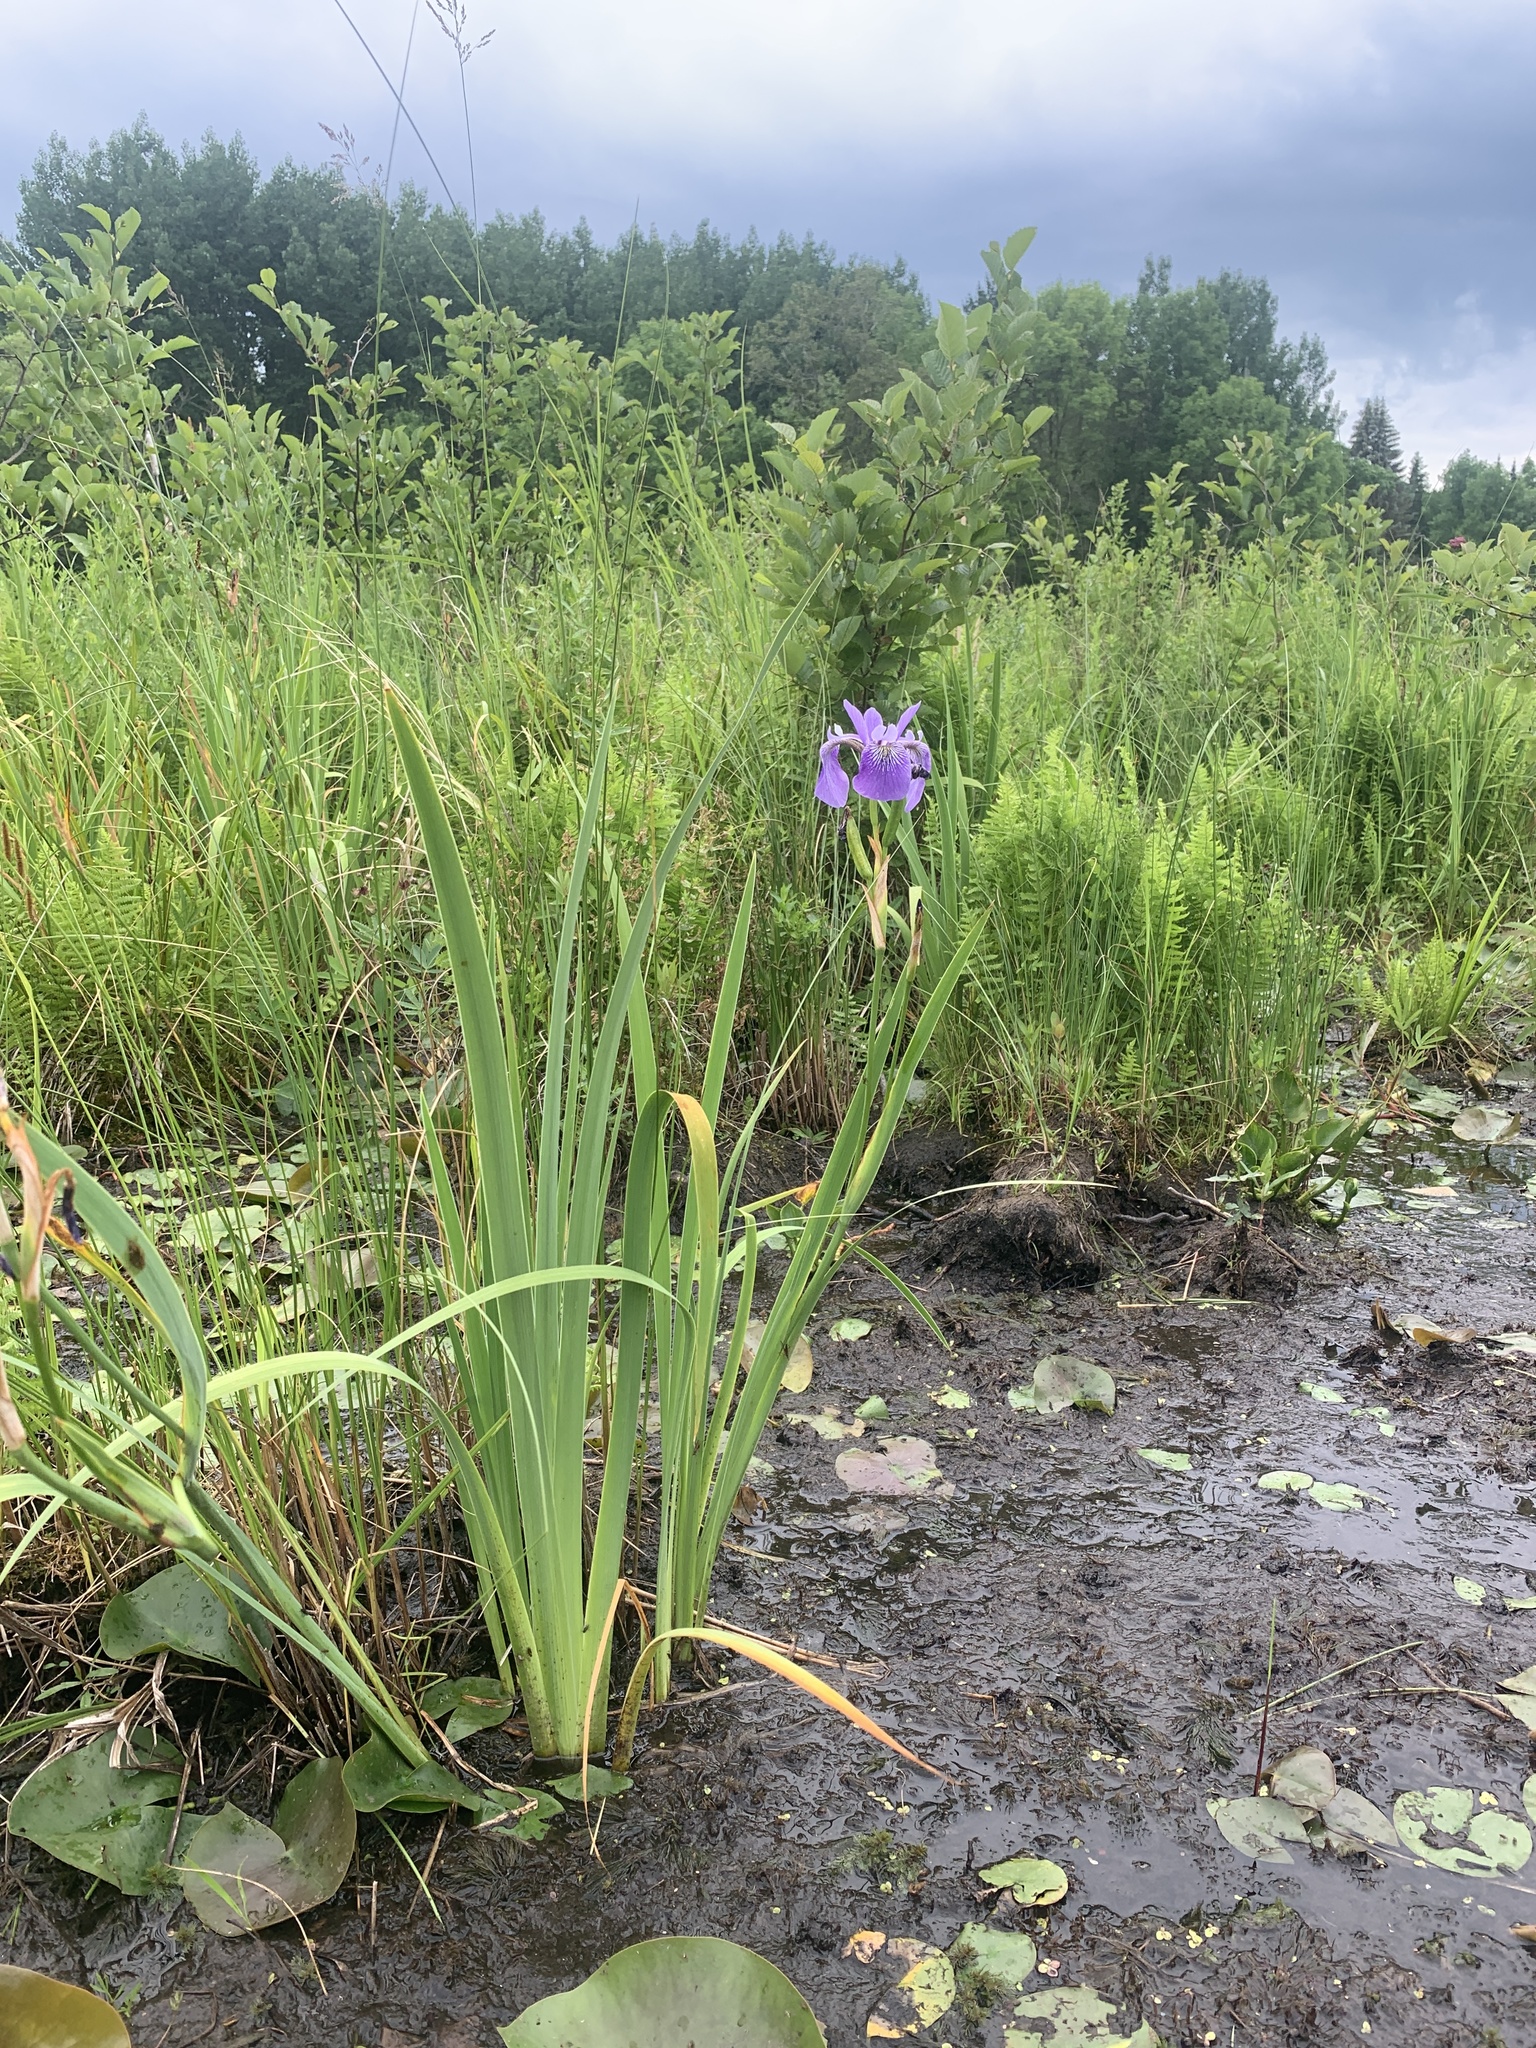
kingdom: Plantae
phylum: Tracheophyta
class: Liliopsida
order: Asparagales
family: Iridaceae
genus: Iris
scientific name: Iris versicolor
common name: Purple iris
